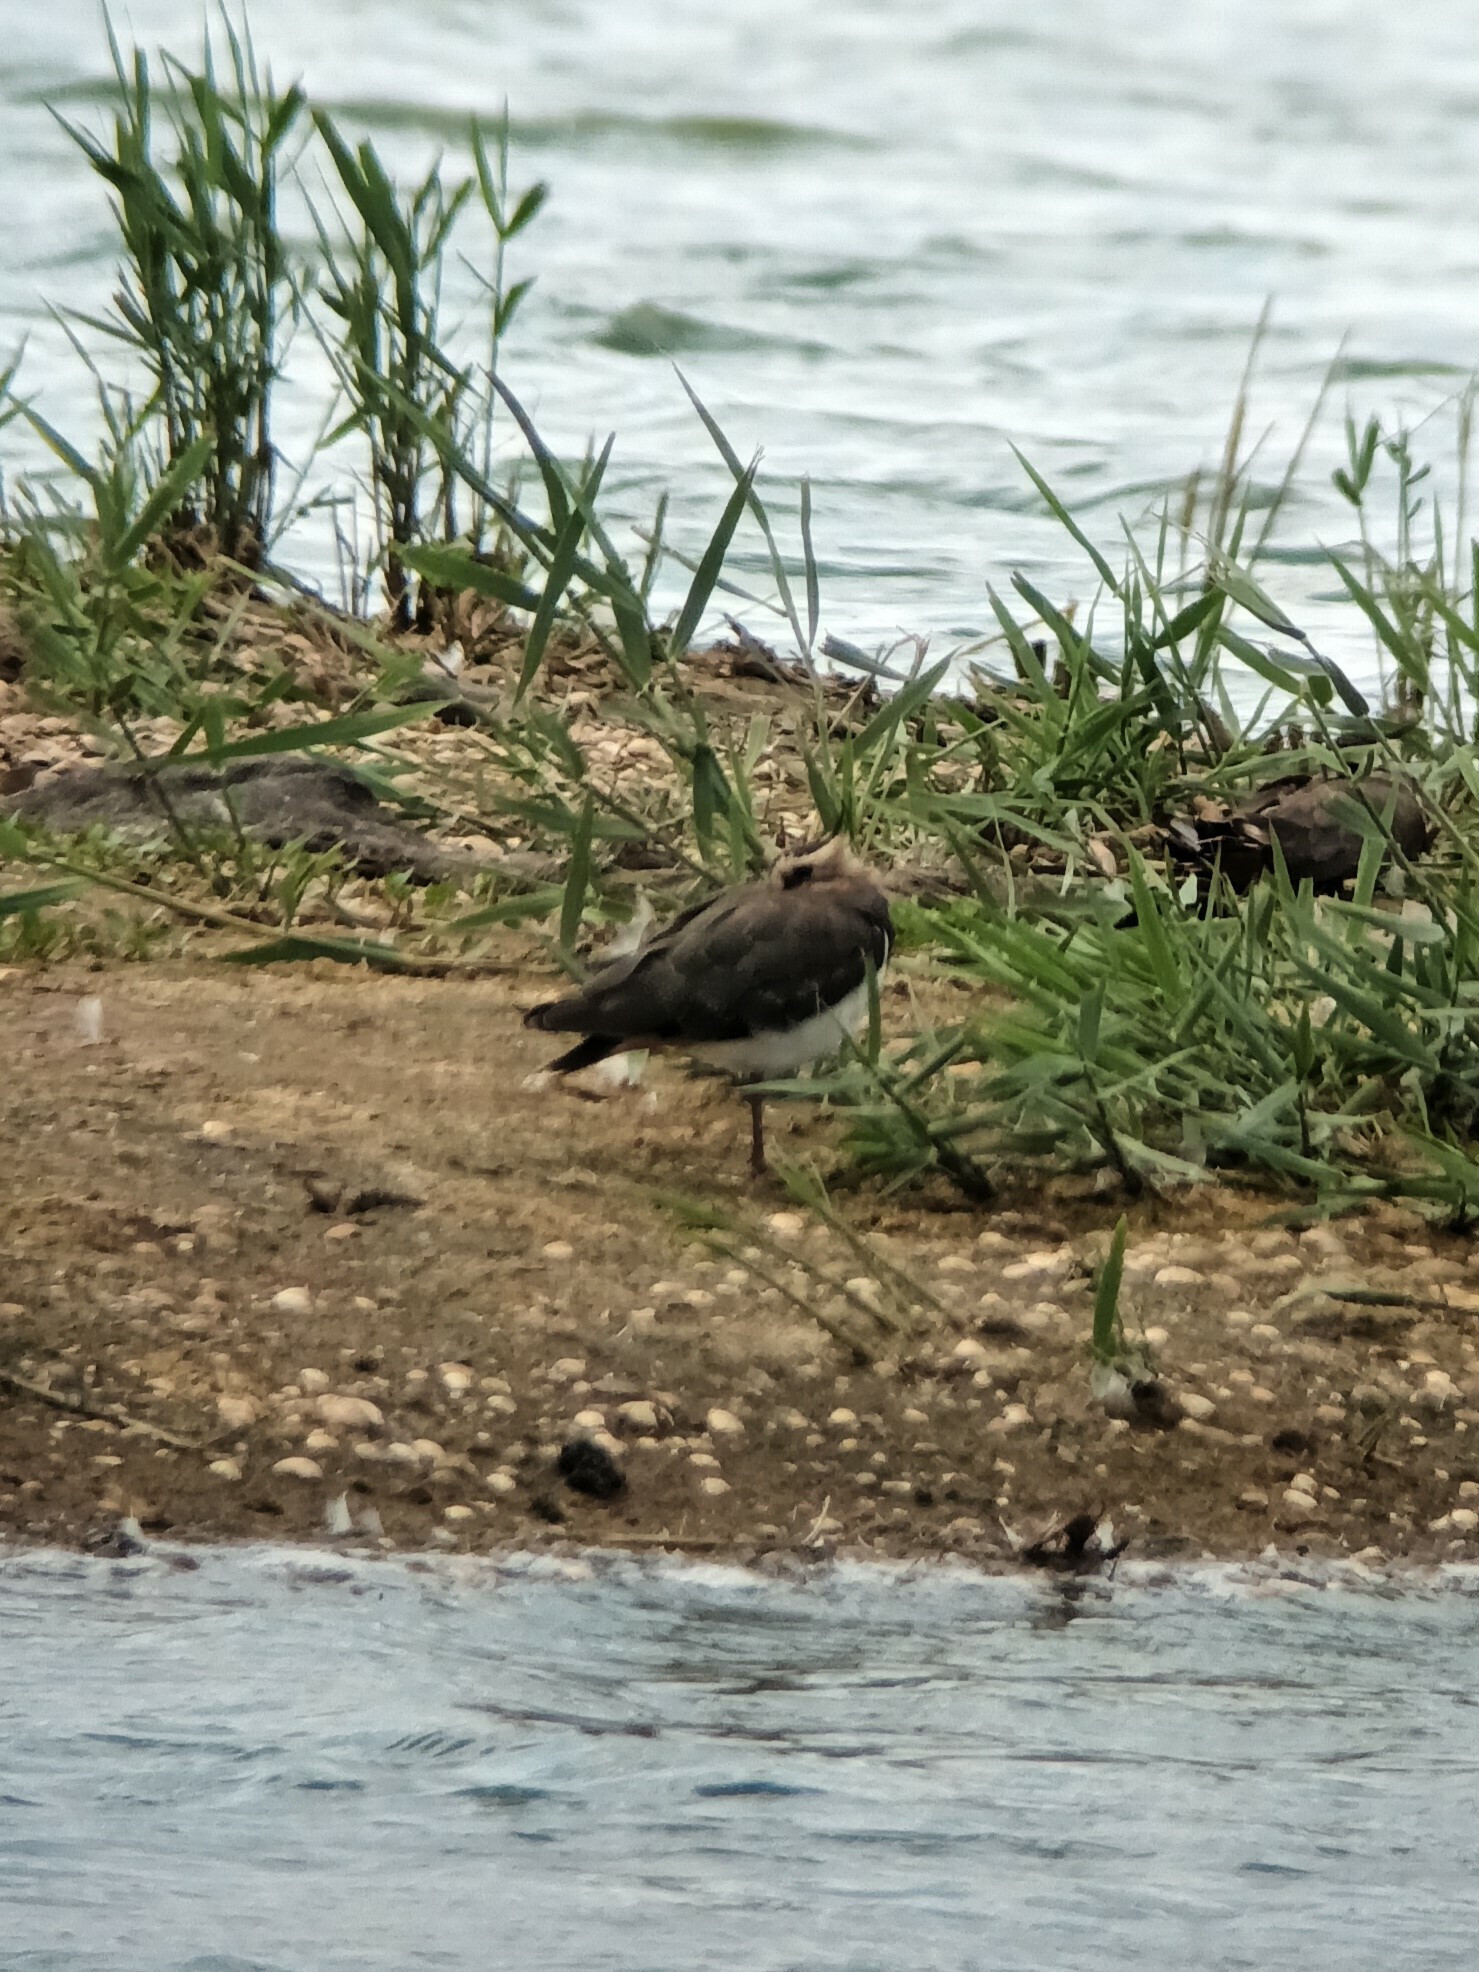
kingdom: Animalia
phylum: Chordata
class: Aves
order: Charadriiformes
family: Charadriidae
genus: Vanellus
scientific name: Vanellus vanellus
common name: Northern lapwing
